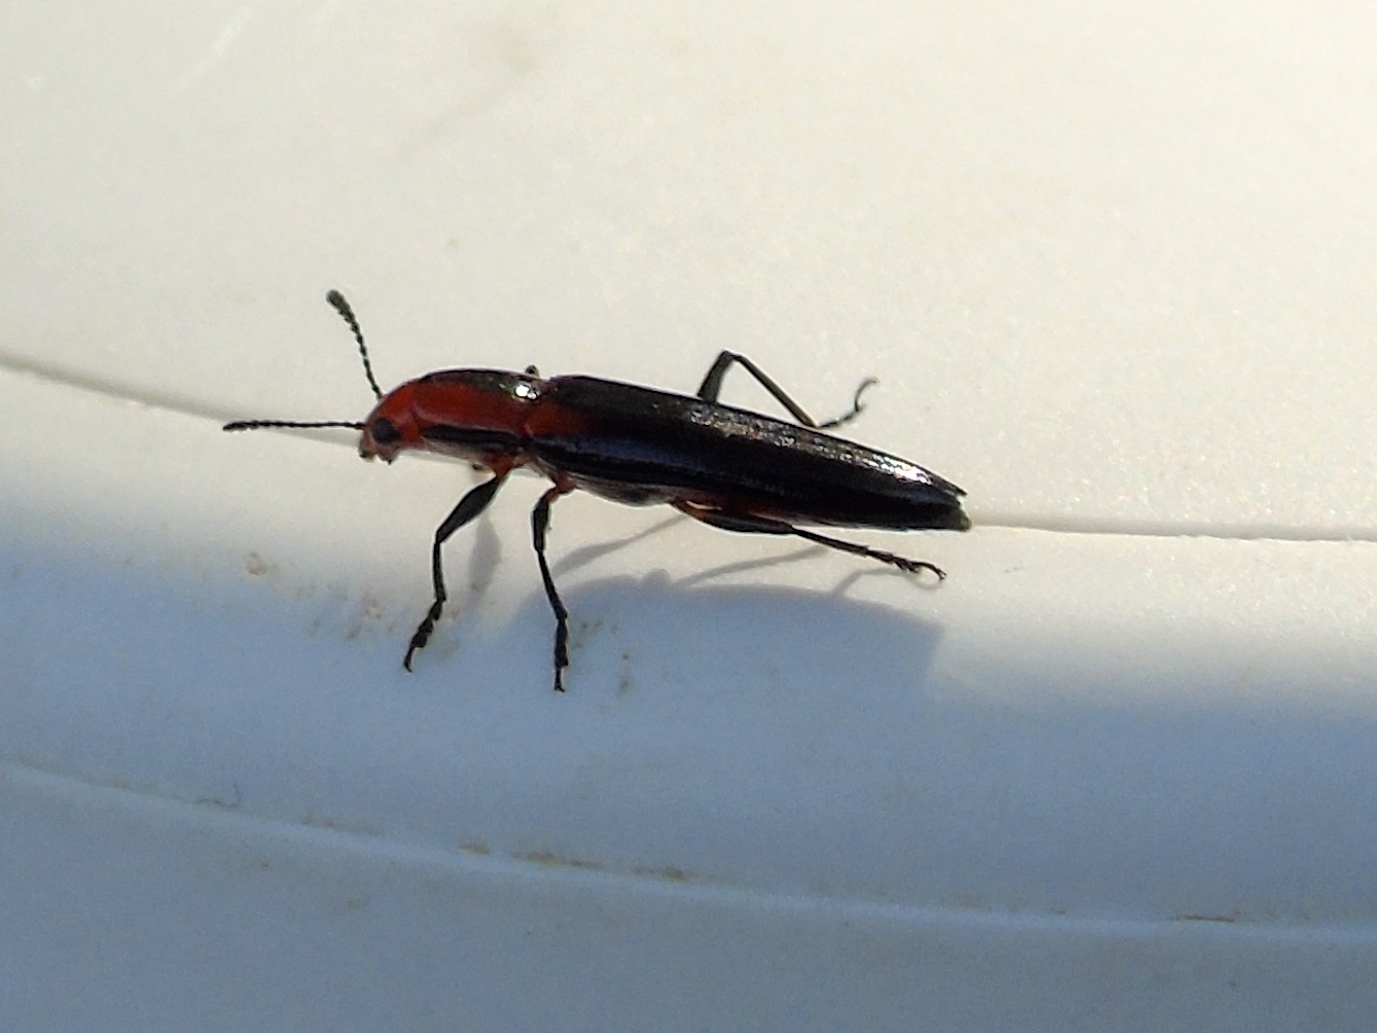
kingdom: Animalia
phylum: Arthropoda
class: Insecta
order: Coleoptera
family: Erotylidae
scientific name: Erotylidae
